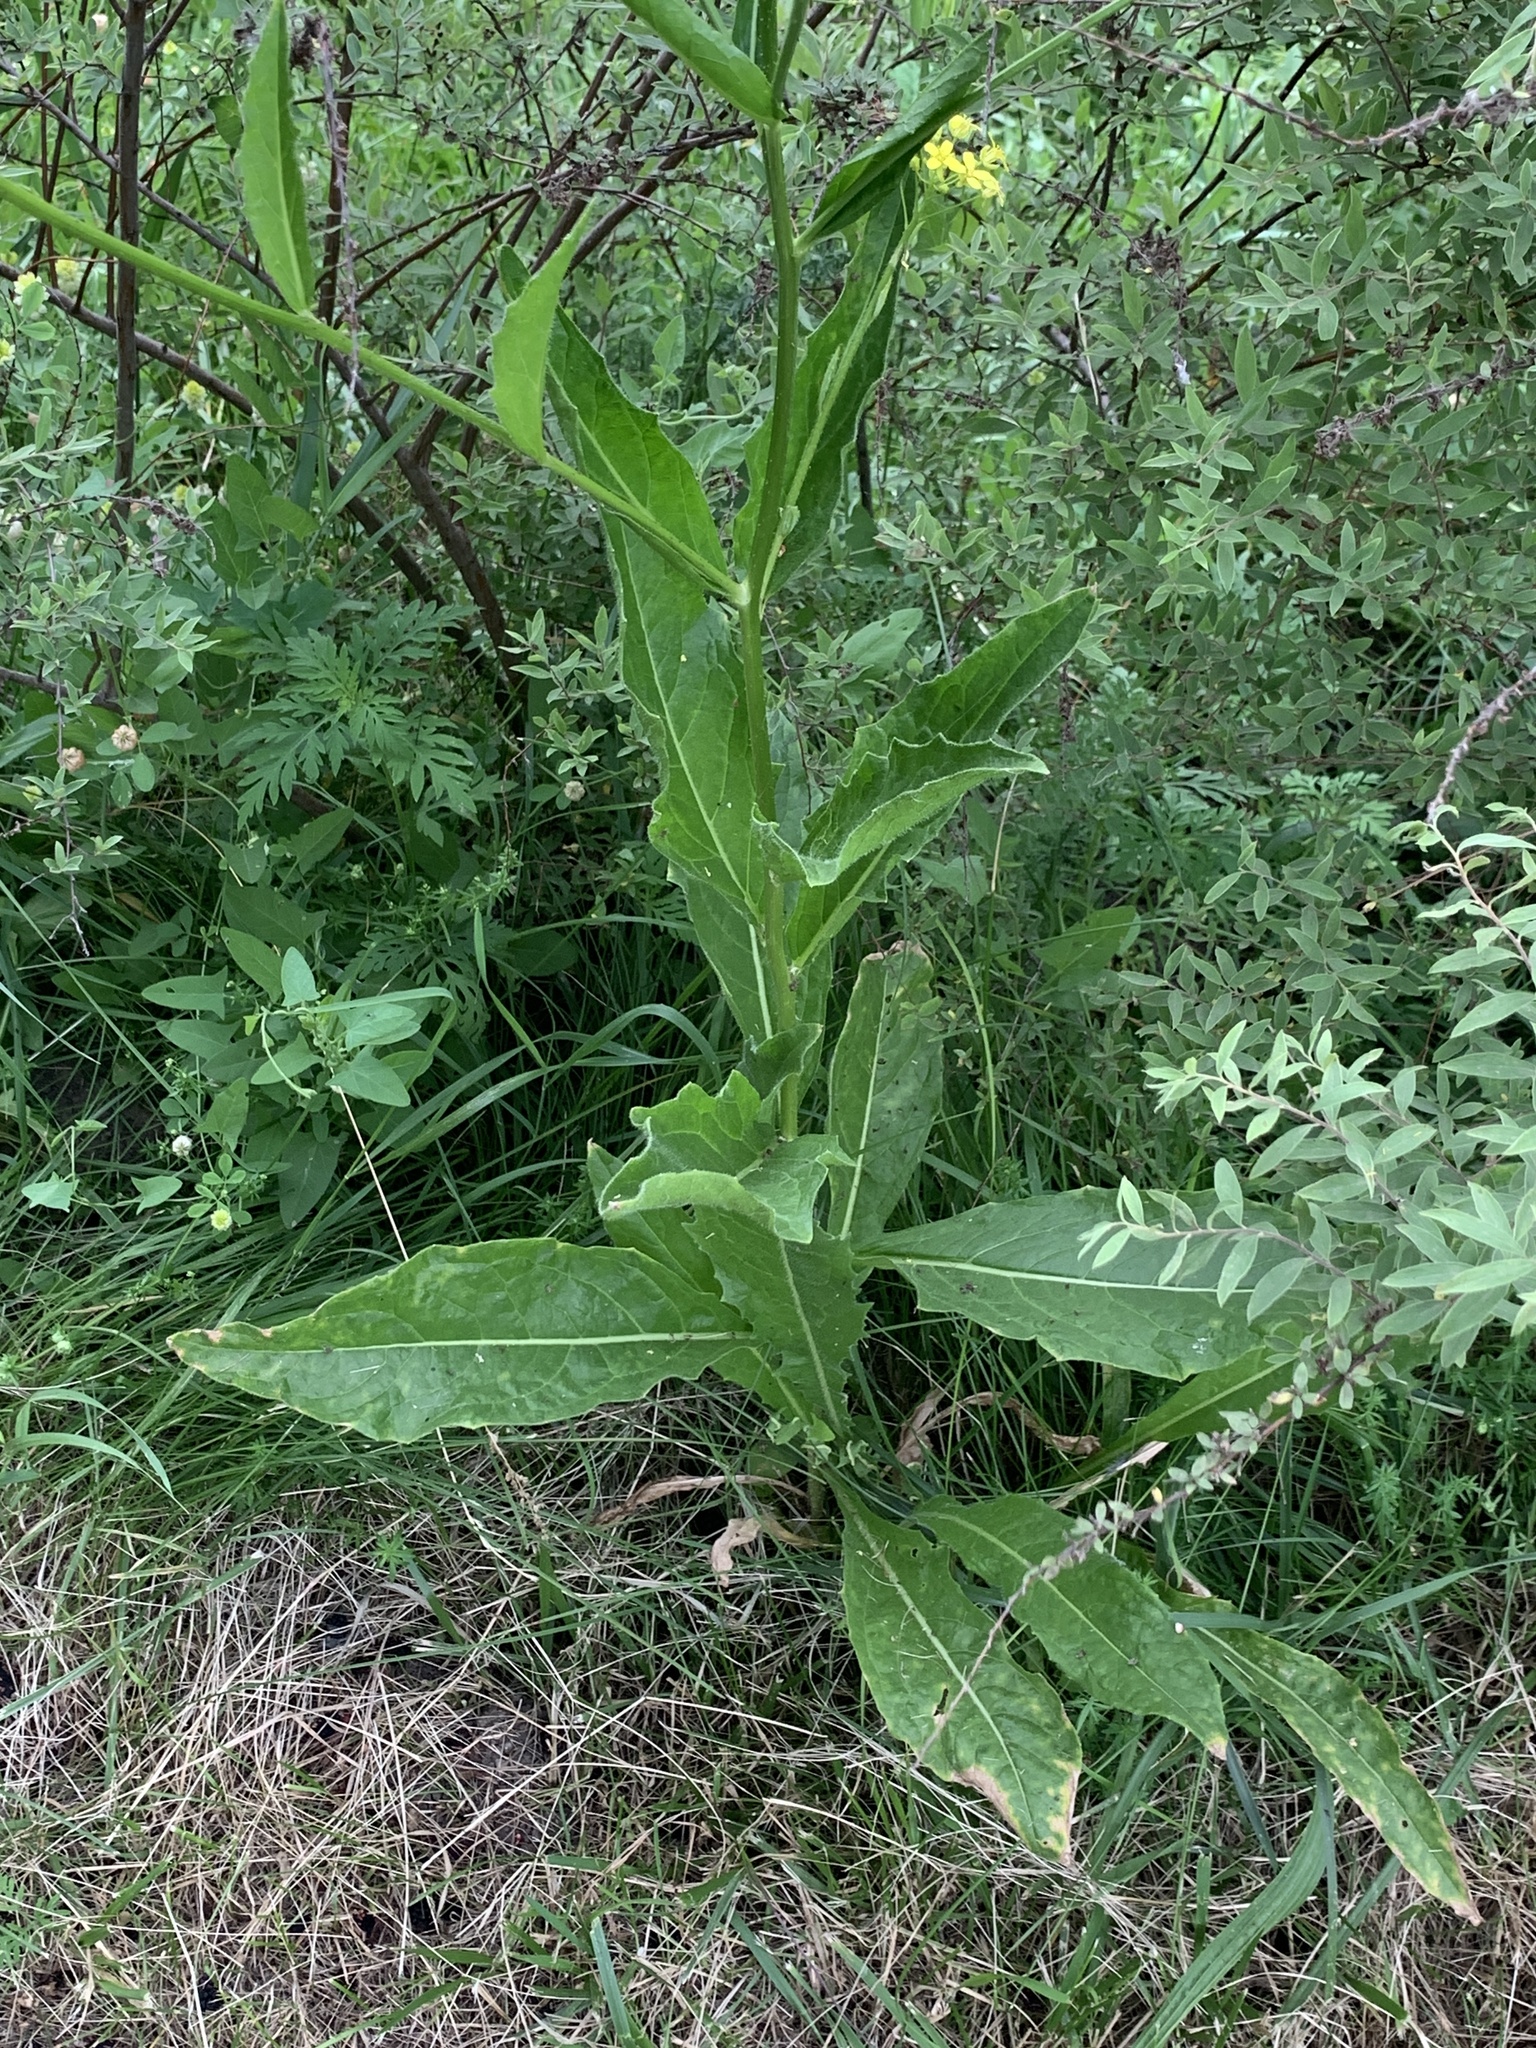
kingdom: Plantae
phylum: Tracheophyta
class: Magnoliopsida
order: Brassicales
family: Brassicaceae
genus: Bunias
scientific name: Bunias orientalis
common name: Warty-cabbage
